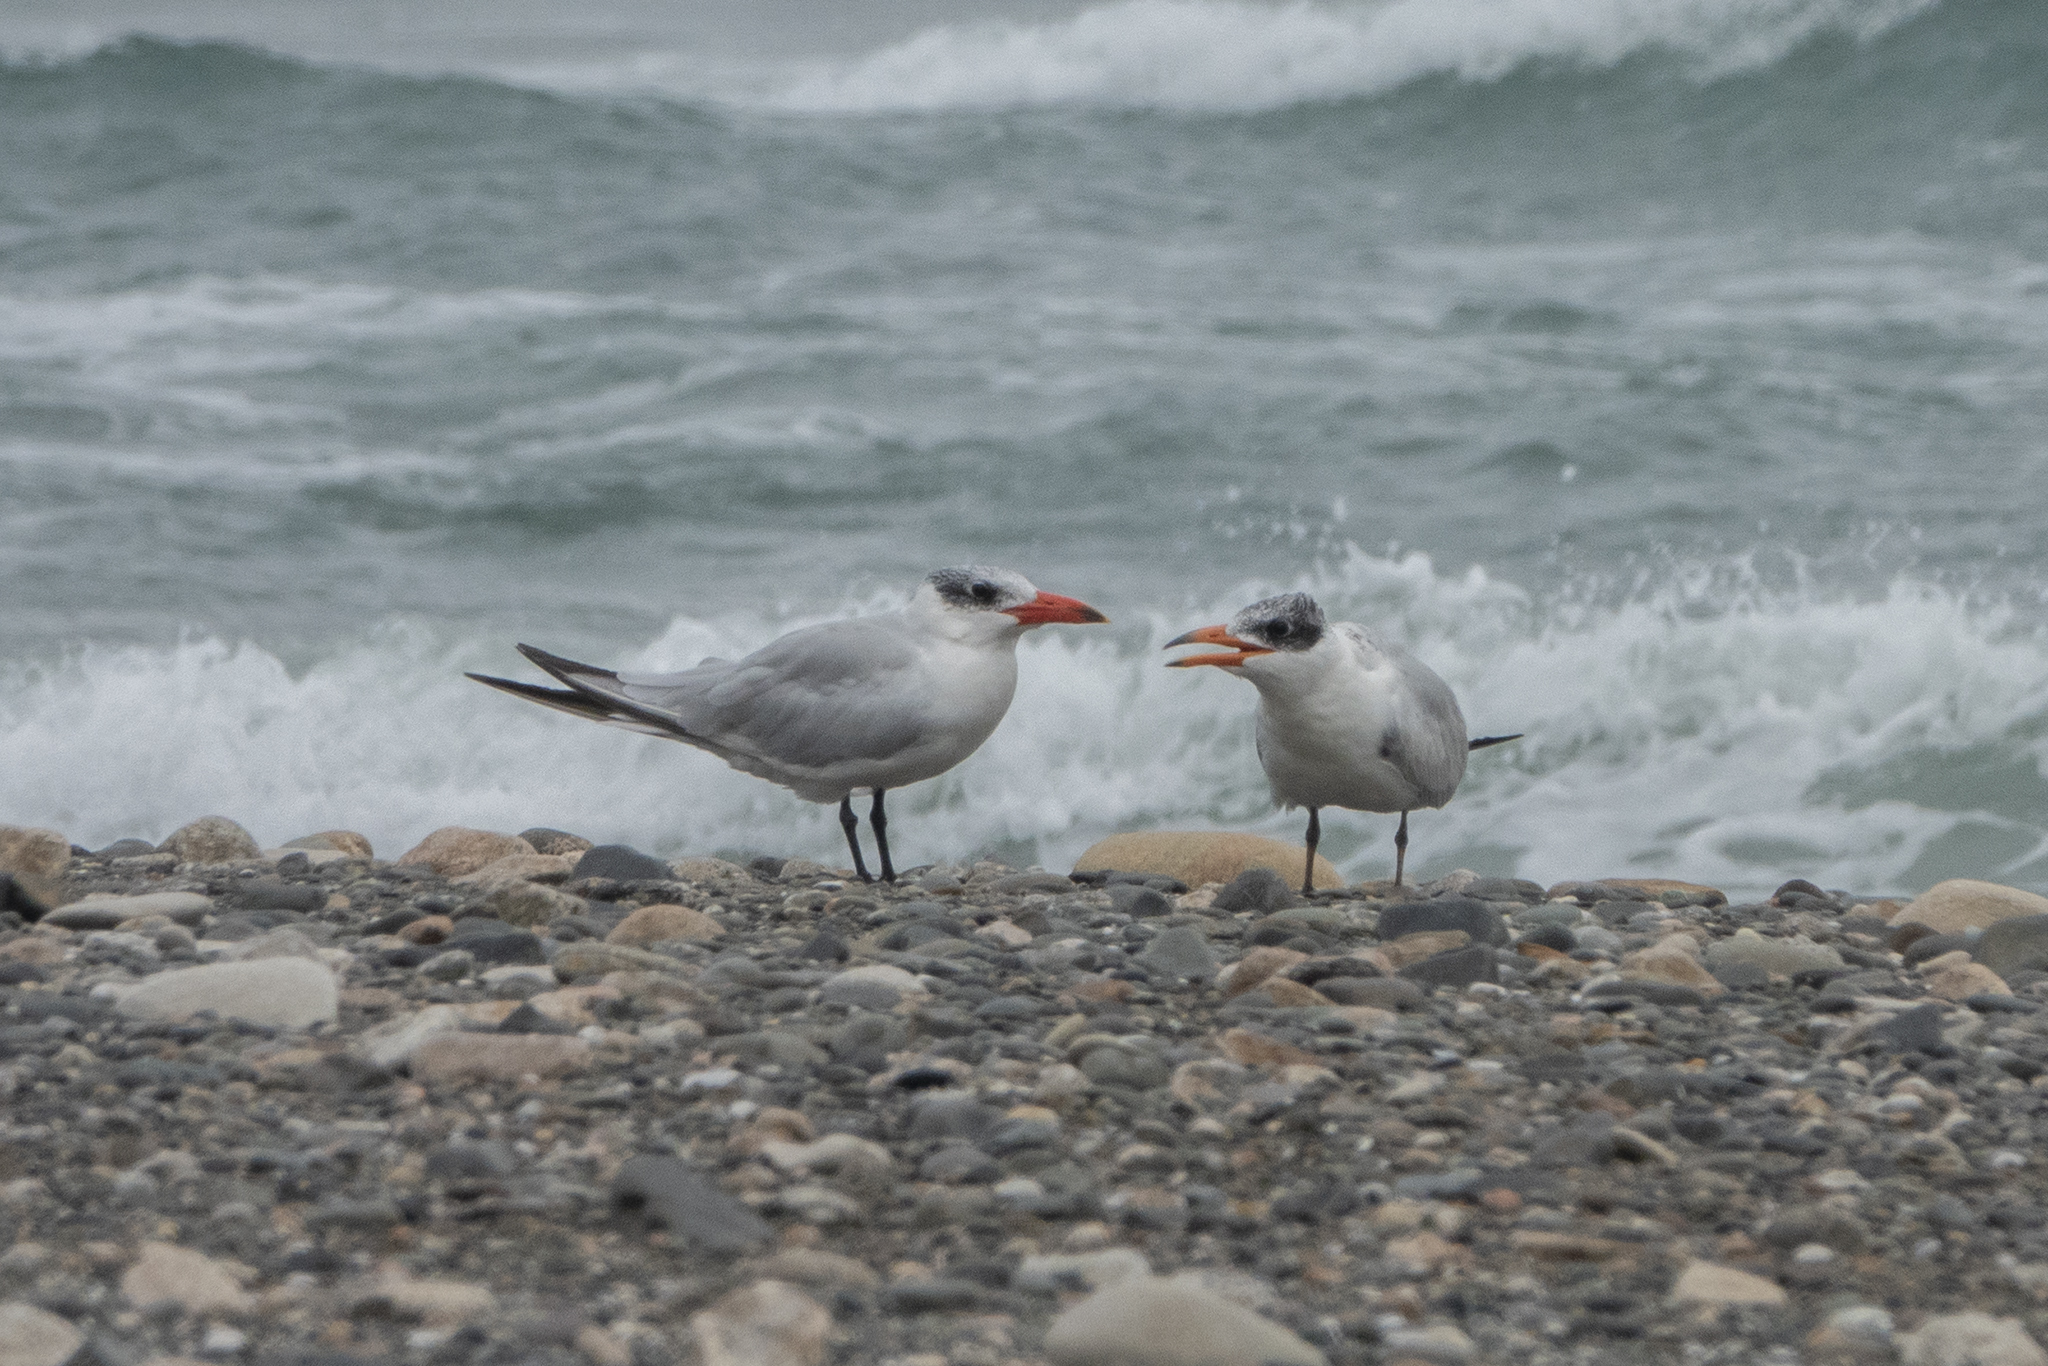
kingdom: Animalia
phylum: Chordata
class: Aves
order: Charadriiformes
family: Laridae
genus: Hydroprogne
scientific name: Hydroprogne caspia
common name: Caspian tern
